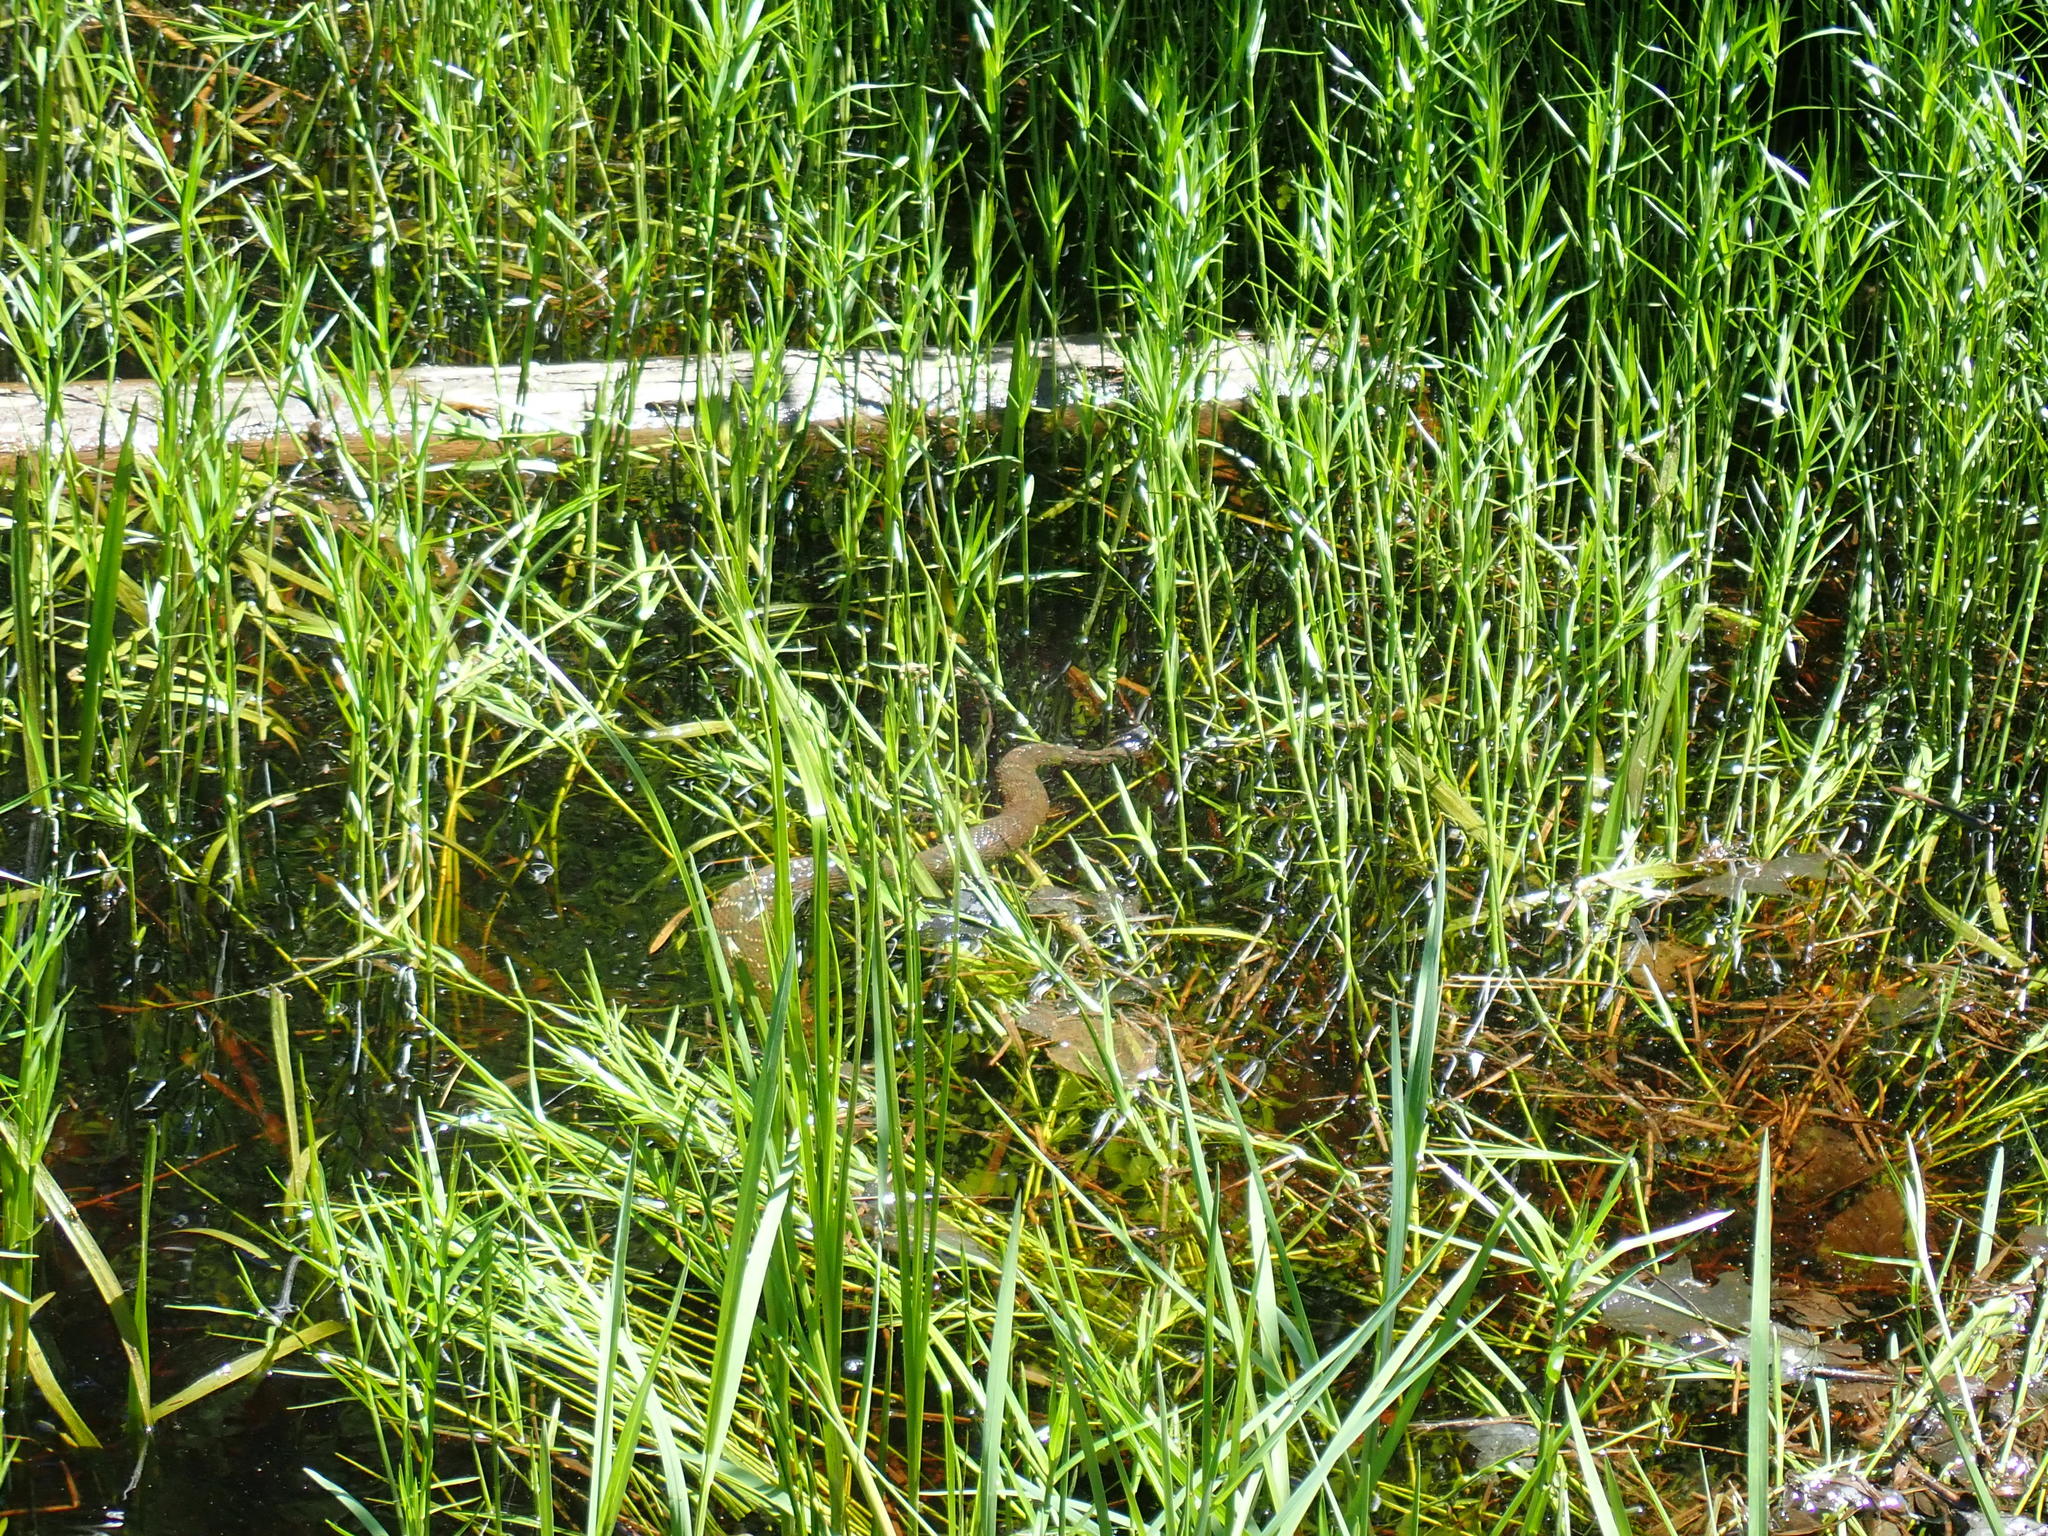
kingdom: Animalia
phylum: Chordata
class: Squamata
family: Colubridae
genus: Nerodia
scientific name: Nerodia sipedon
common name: Northern water snake
